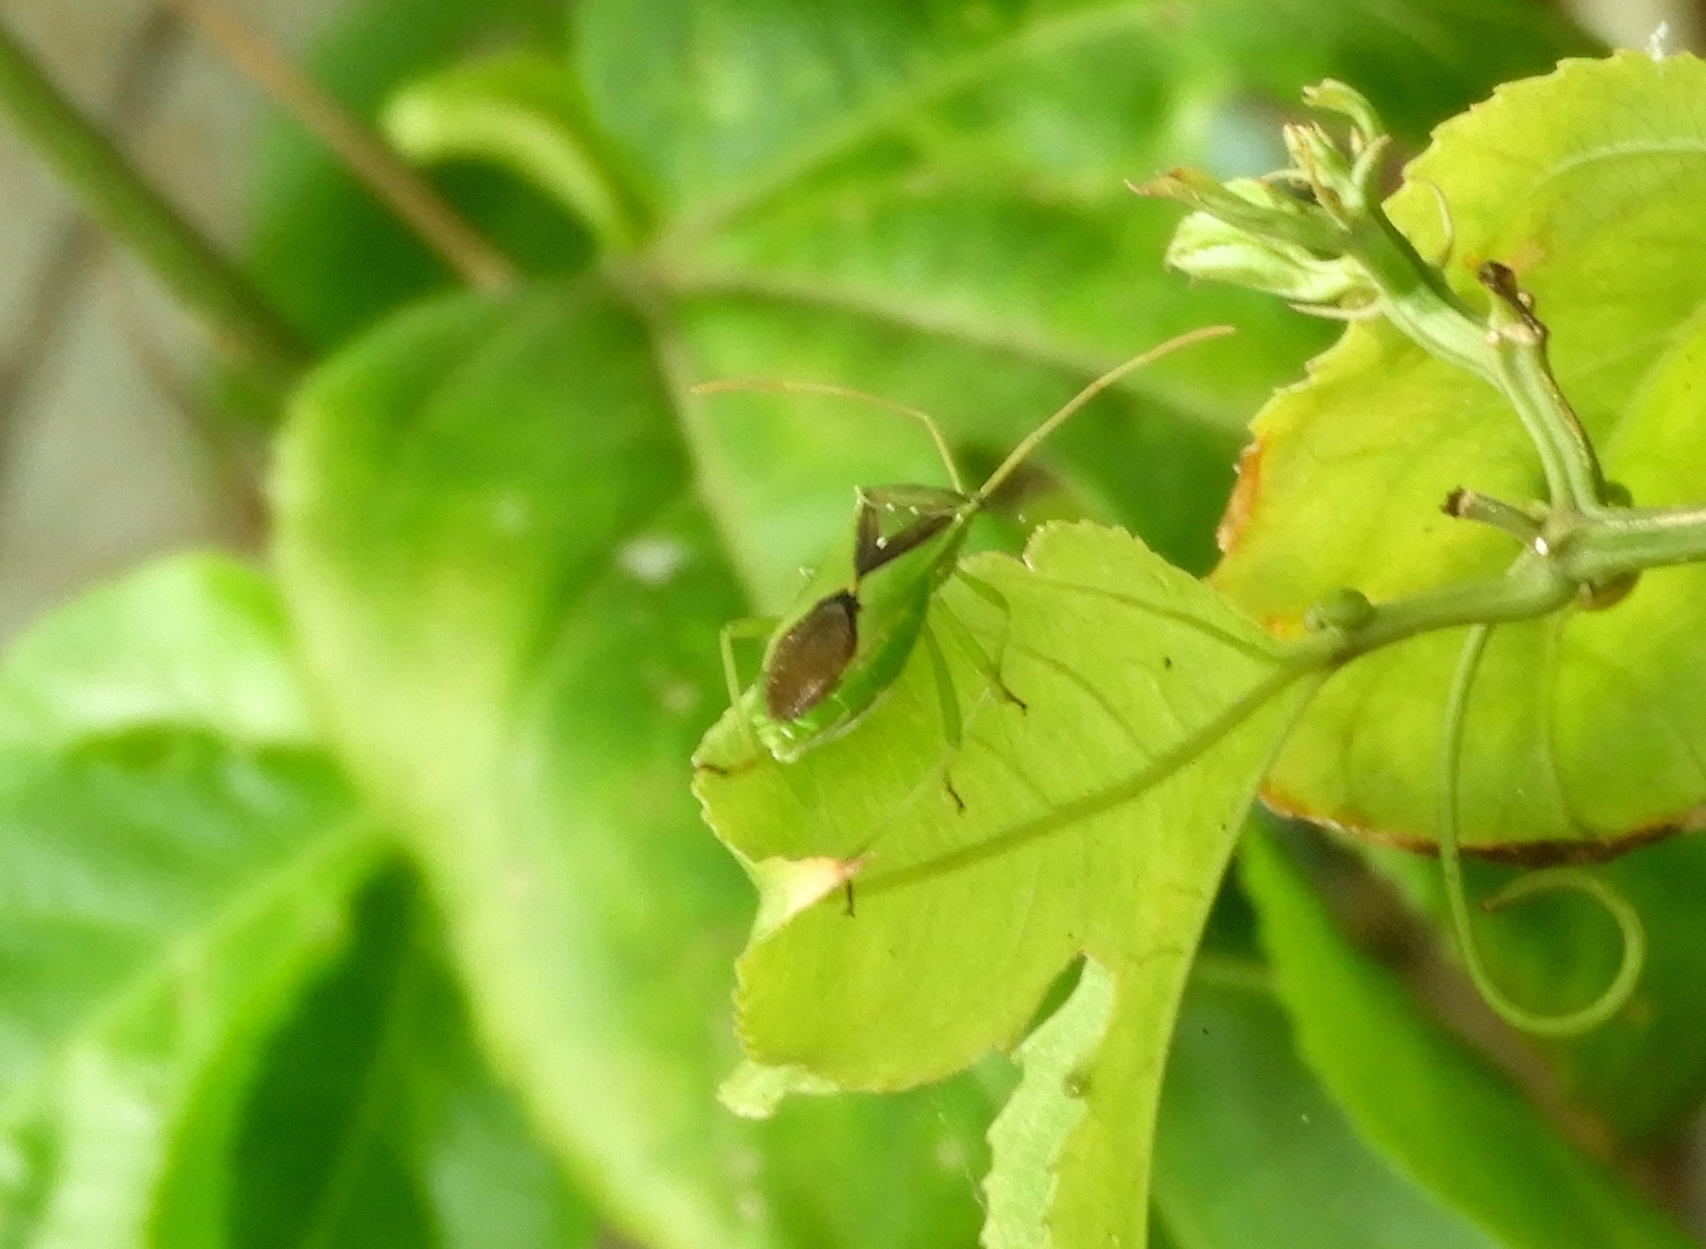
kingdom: Animalia
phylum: Arthropoda
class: Insecta
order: Hemiptera
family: Coreidae
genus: Savius
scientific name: Savius jurgiosus
